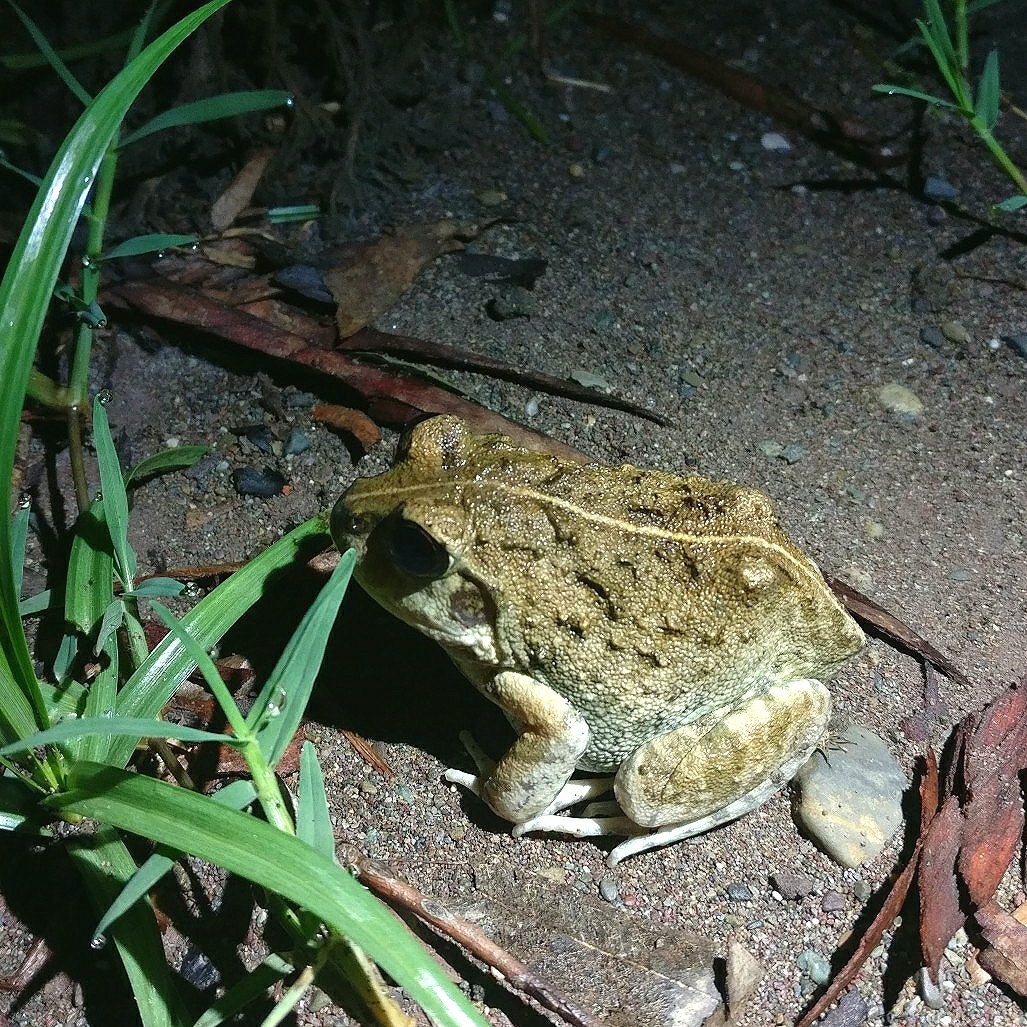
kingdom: Animalia
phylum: Chordata
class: Amphibia
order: Anura
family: Dicroglossidae
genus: Sphaerotheca
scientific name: Sphaerotheca maskeyi
